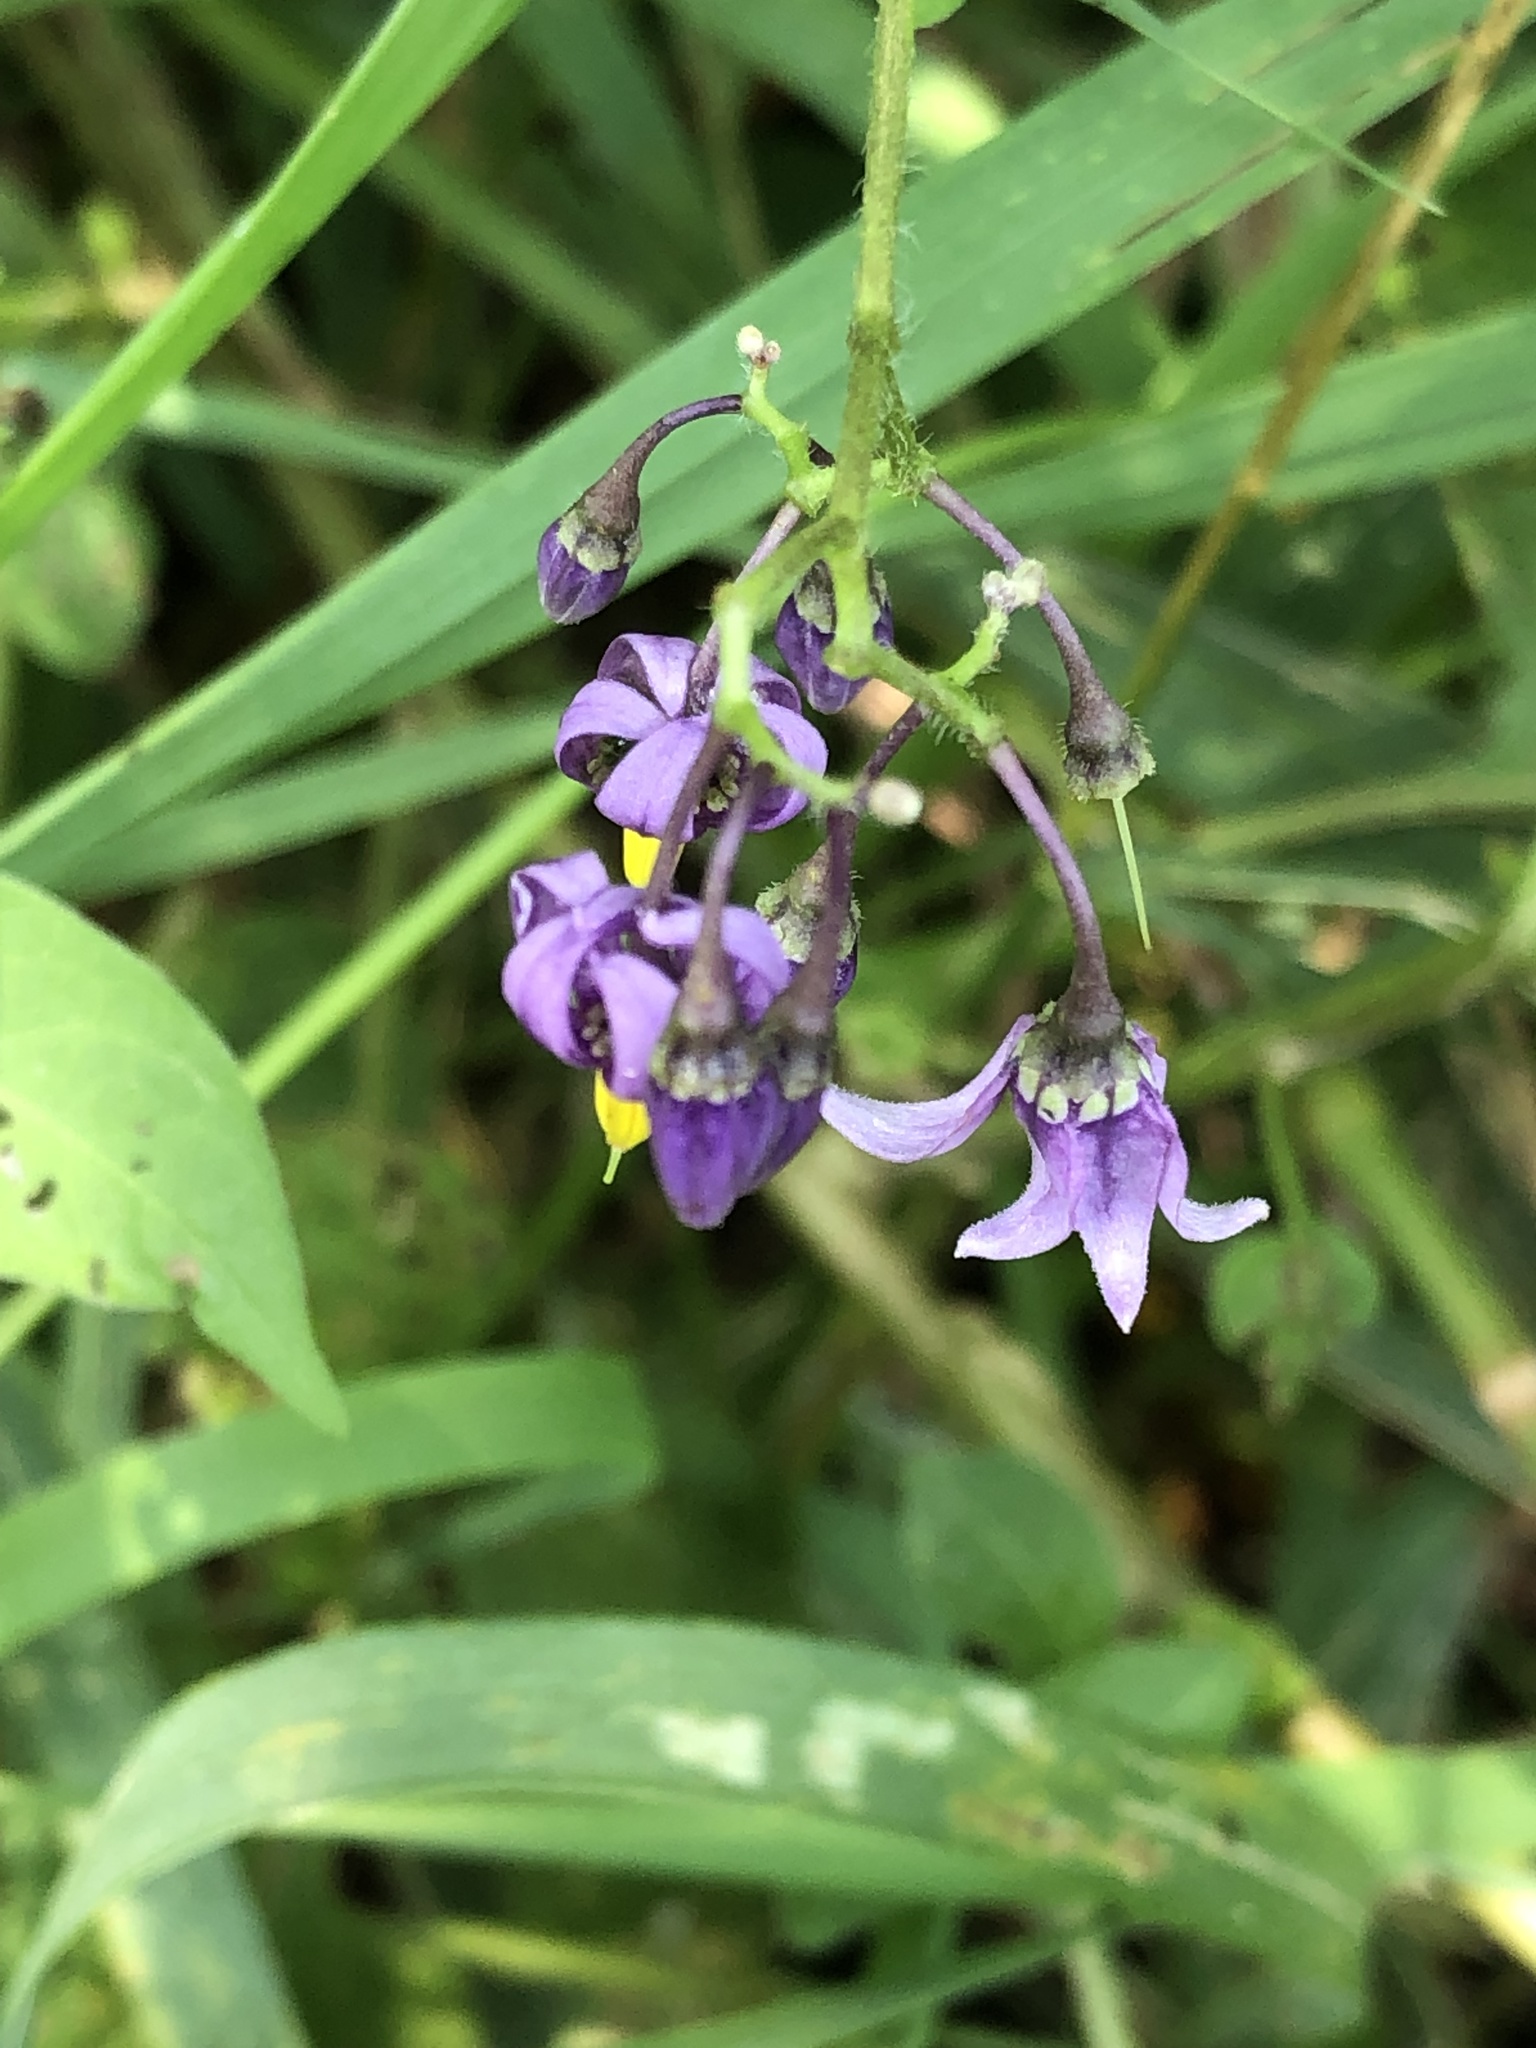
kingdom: Plantae
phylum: Tracheophyta
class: Magnoliopsida
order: Solanales
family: Solanaceae
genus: Solanum
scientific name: Solanum dulcamara
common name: Climbing nightshade
